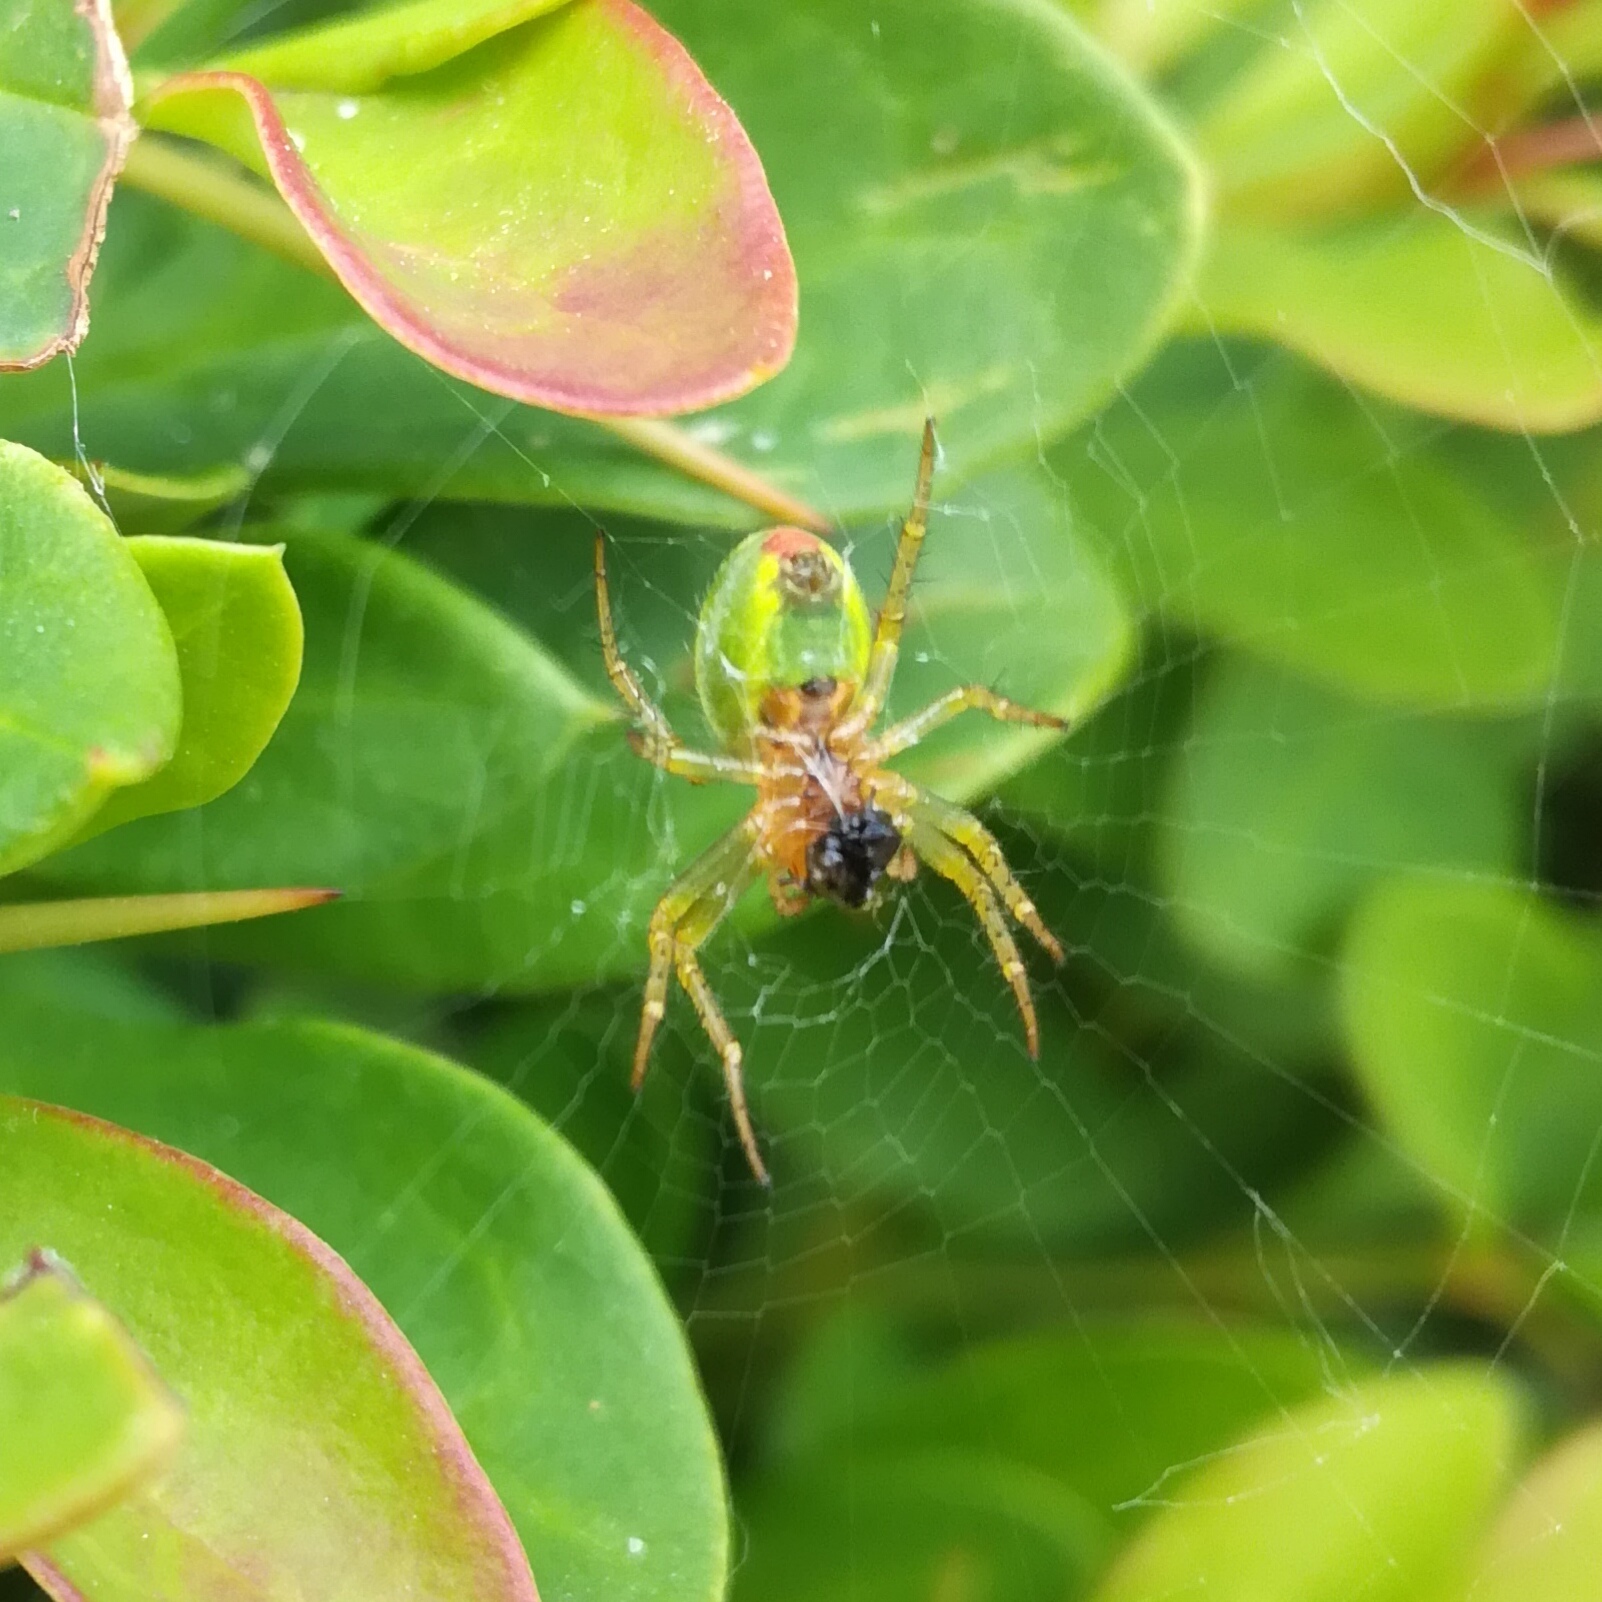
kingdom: Animalia
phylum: Arthropoda
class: Arachnida
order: Araneae
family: Araneidae
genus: Araniella
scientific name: Araniella cucurbitina
